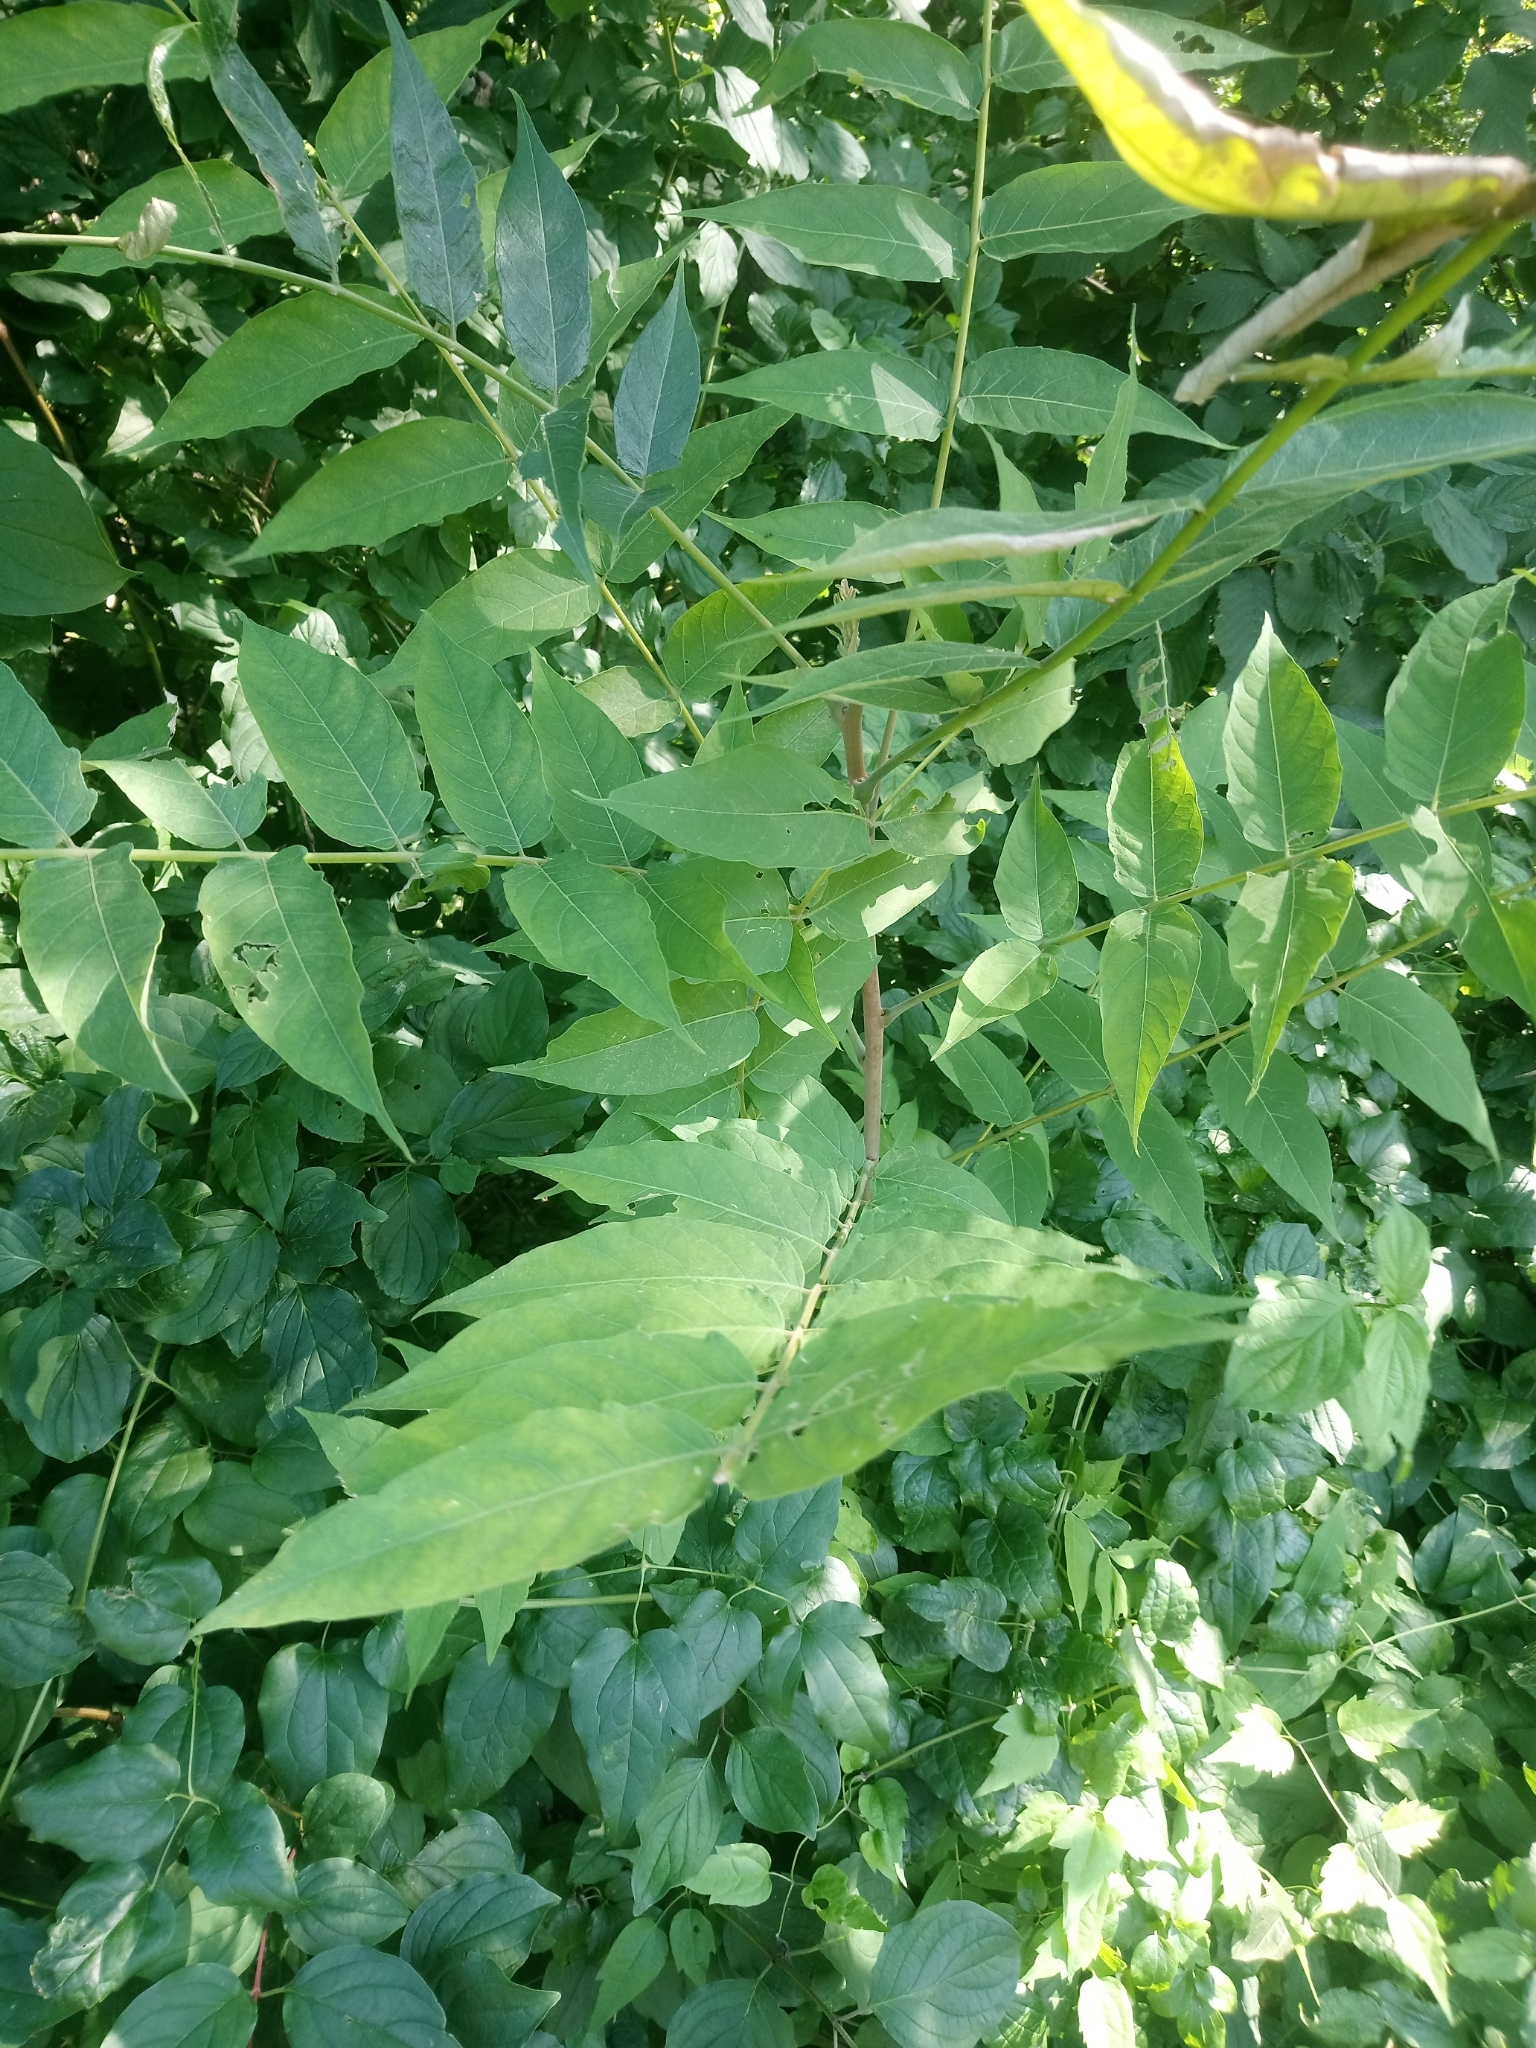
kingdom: Plantae
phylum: Tracheophyta
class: Magnoliopsida
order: Sapindales
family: Simaroubaceae
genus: Ailanthus
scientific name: Ailanthus altissima
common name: Tree-of-heaven
